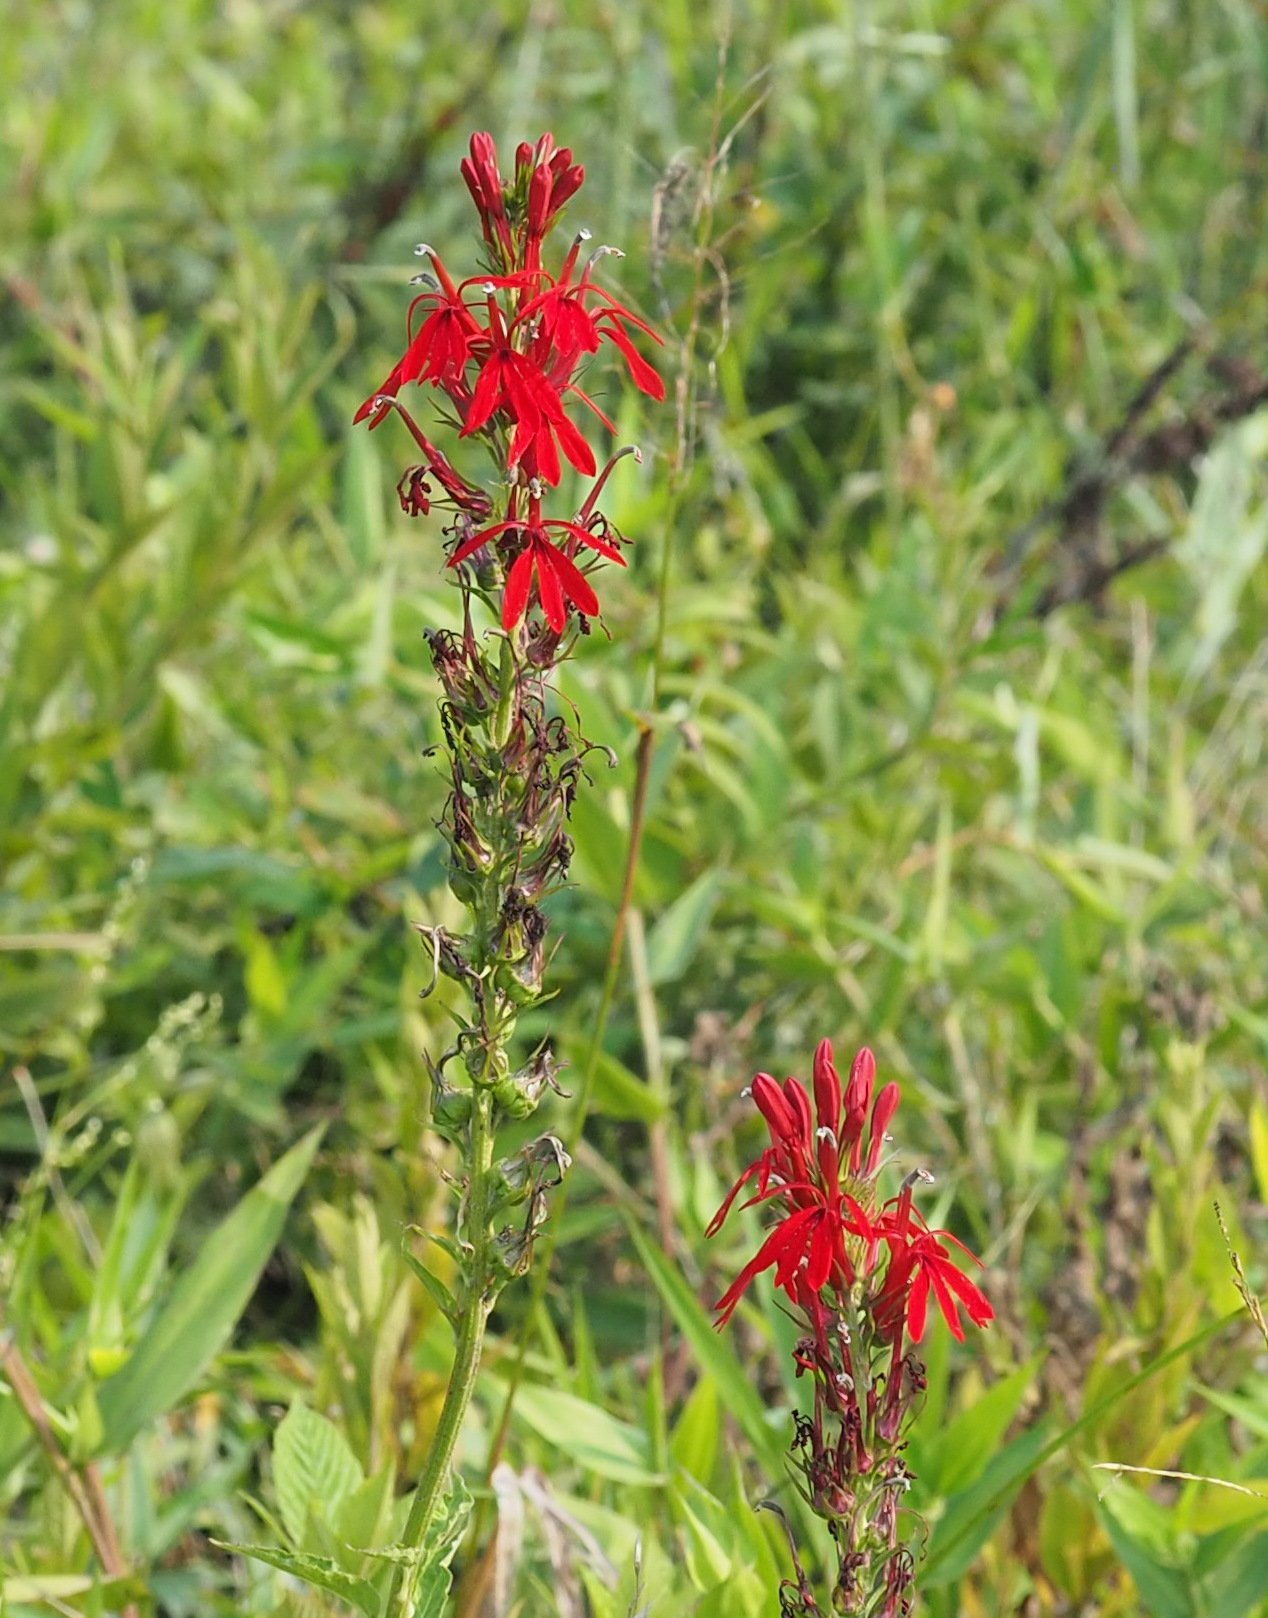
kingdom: Plantae
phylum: Tracheophyta
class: Magnoliopsida
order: Asterales
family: Campanulaceae
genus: Lobelia
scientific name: Lobelia cardinalis
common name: Cardinal flower
